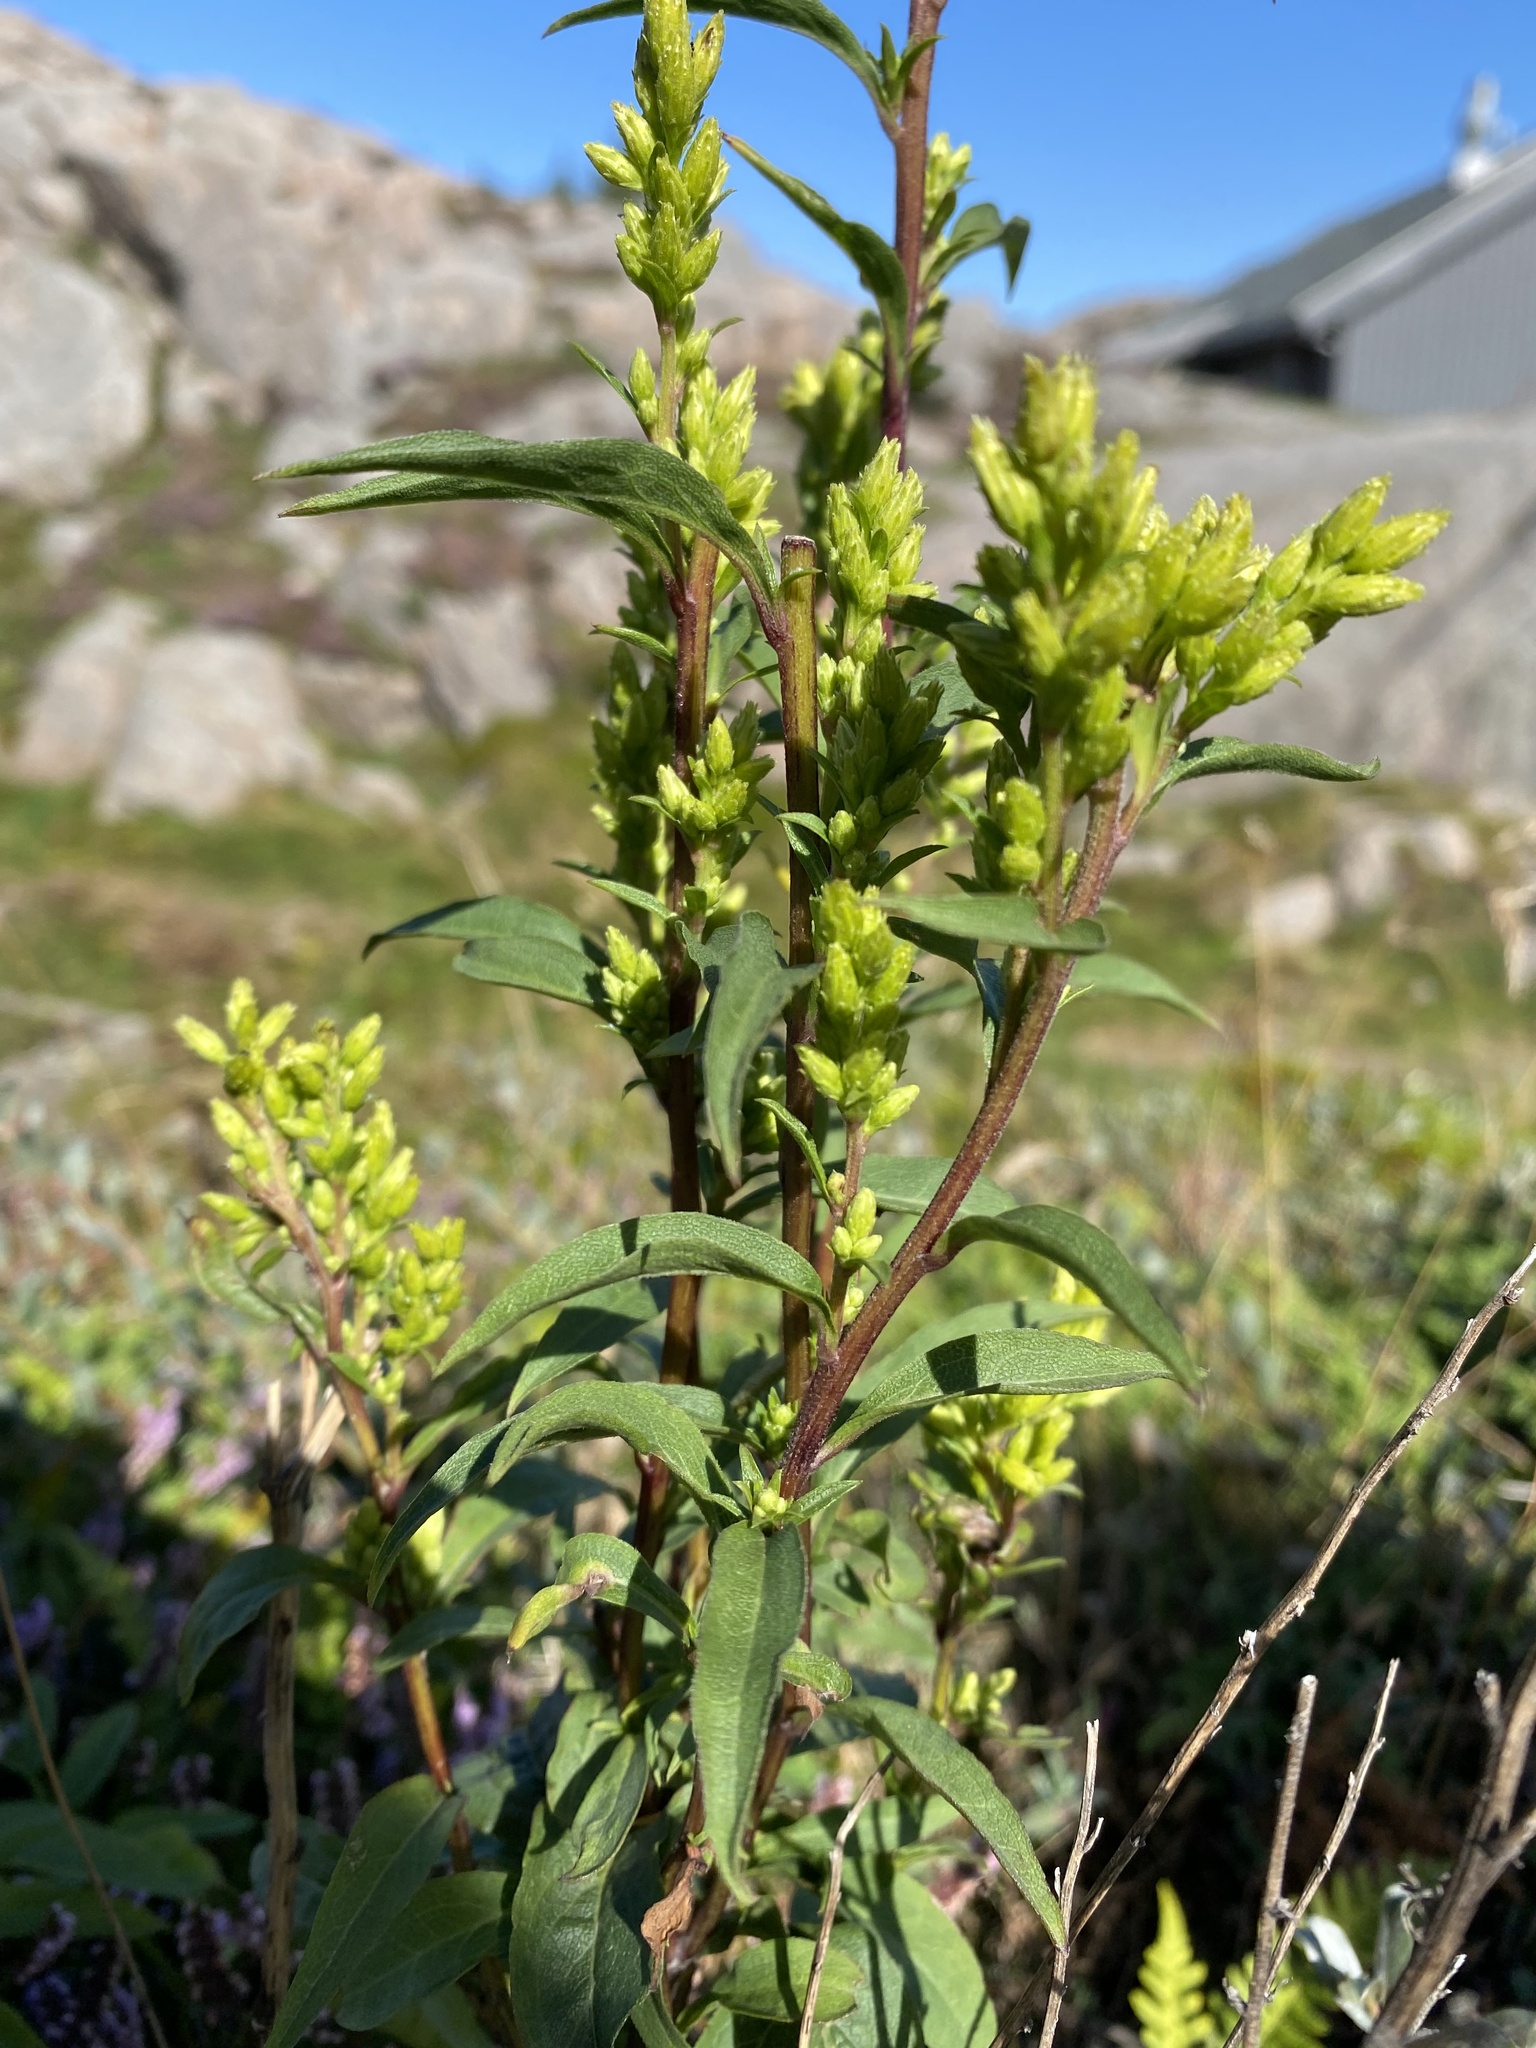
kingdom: Plantae
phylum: Tracheophyta
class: Magnoliopsida
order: Asterales
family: Asteraceae
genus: Solidago
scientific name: Solidago virgaurea
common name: Goldenrod
